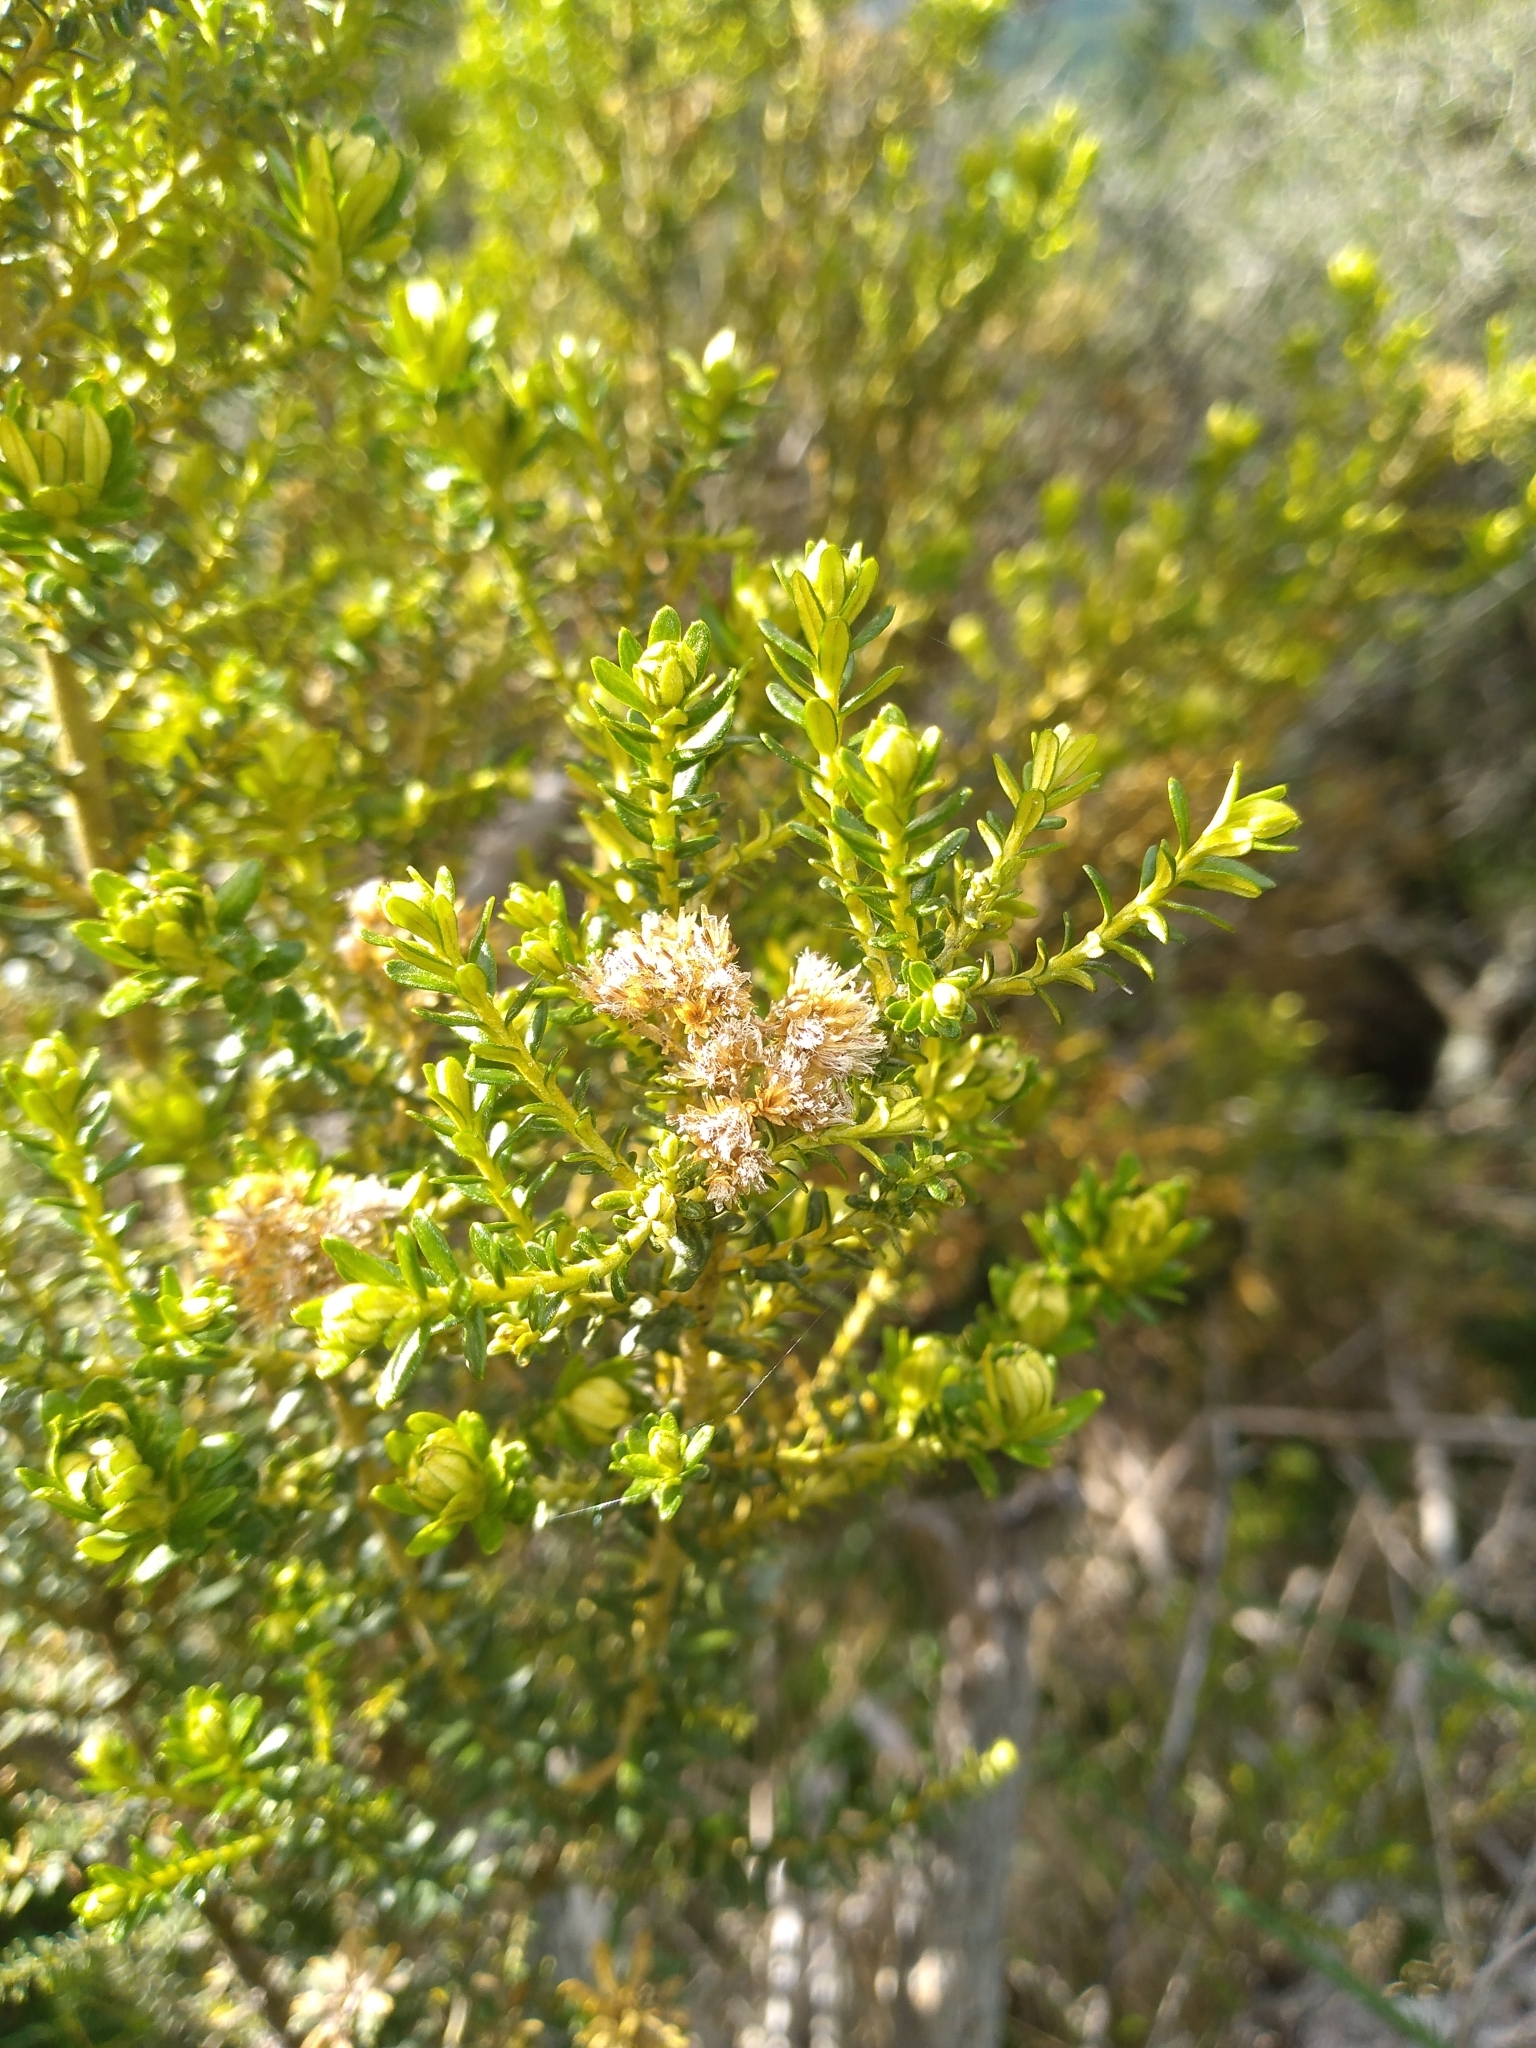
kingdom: Plantae
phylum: Tracheophyta
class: Magnoliopsida
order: Asterales
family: Asteraceae
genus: Ozothamnus
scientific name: Ozothamnus leptophyllus
